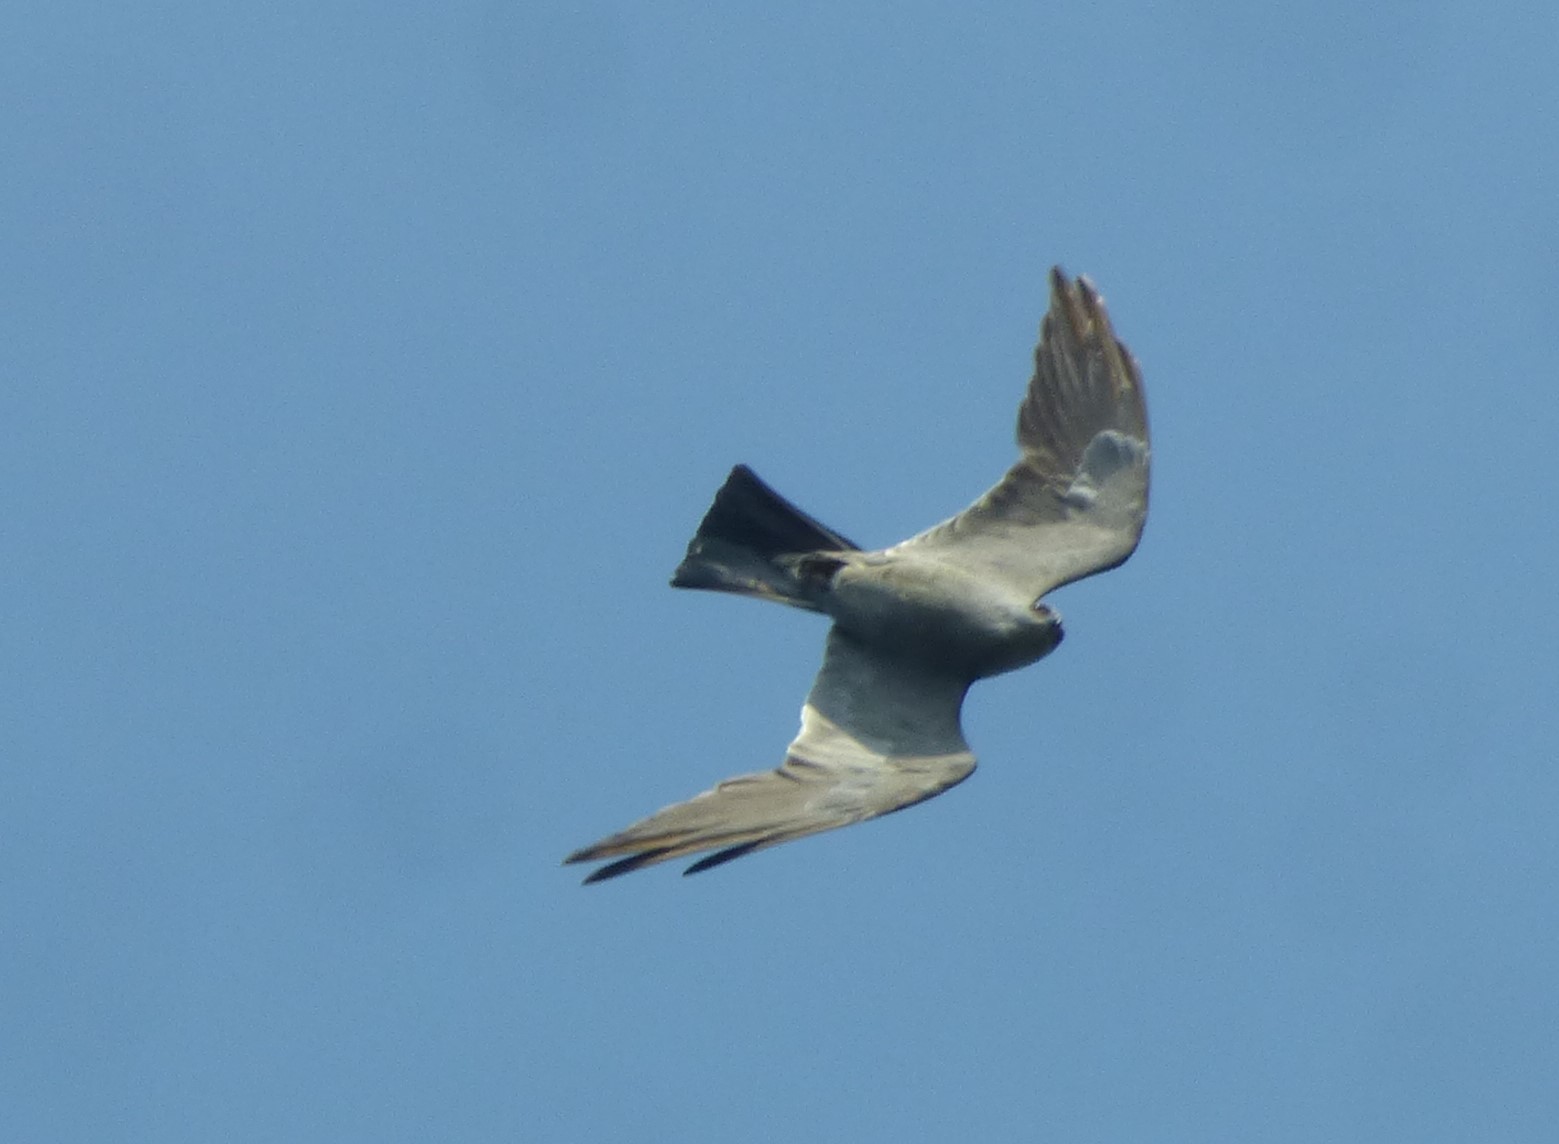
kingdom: Animalia
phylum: Chordata
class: Aves
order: Accipitriformes
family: Accipitridae
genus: Ictinia
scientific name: Ictinia mississippiensis
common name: Mississippi kite
